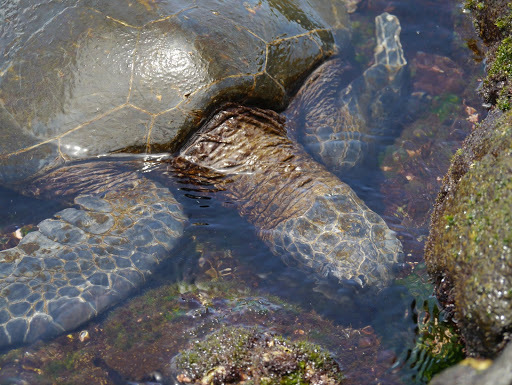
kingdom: Animalia
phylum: Chordata
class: Testudines
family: Cheloniidae
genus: Chelonia
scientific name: Chelonia mydas
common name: Green turtle
